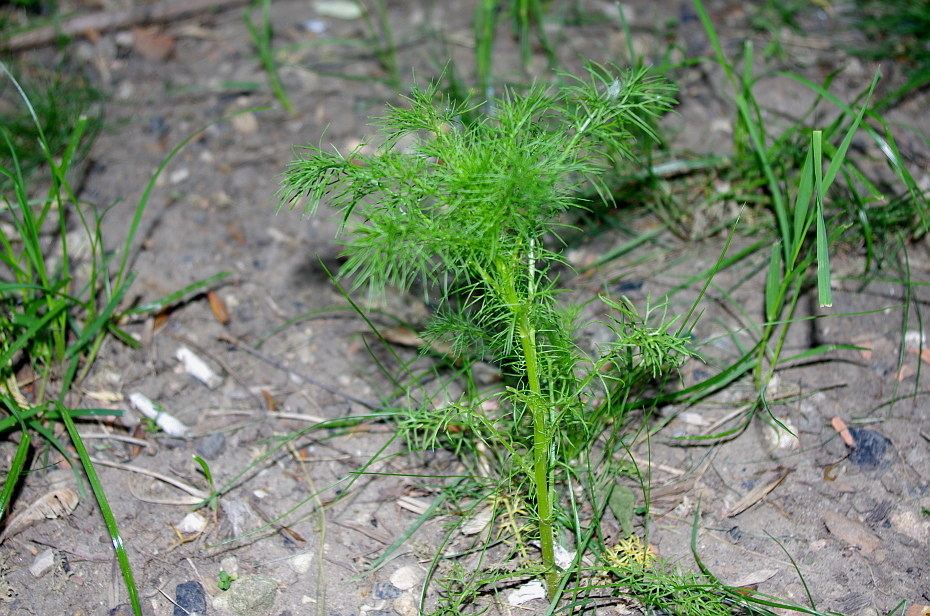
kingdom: Plantae
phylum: Tracheophyta
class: Magnoliopsida
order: Asterales
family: Asteraceae
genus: Tripleurospermum
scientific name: Tripleurospermum inodorum
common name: Scentless mayweed
